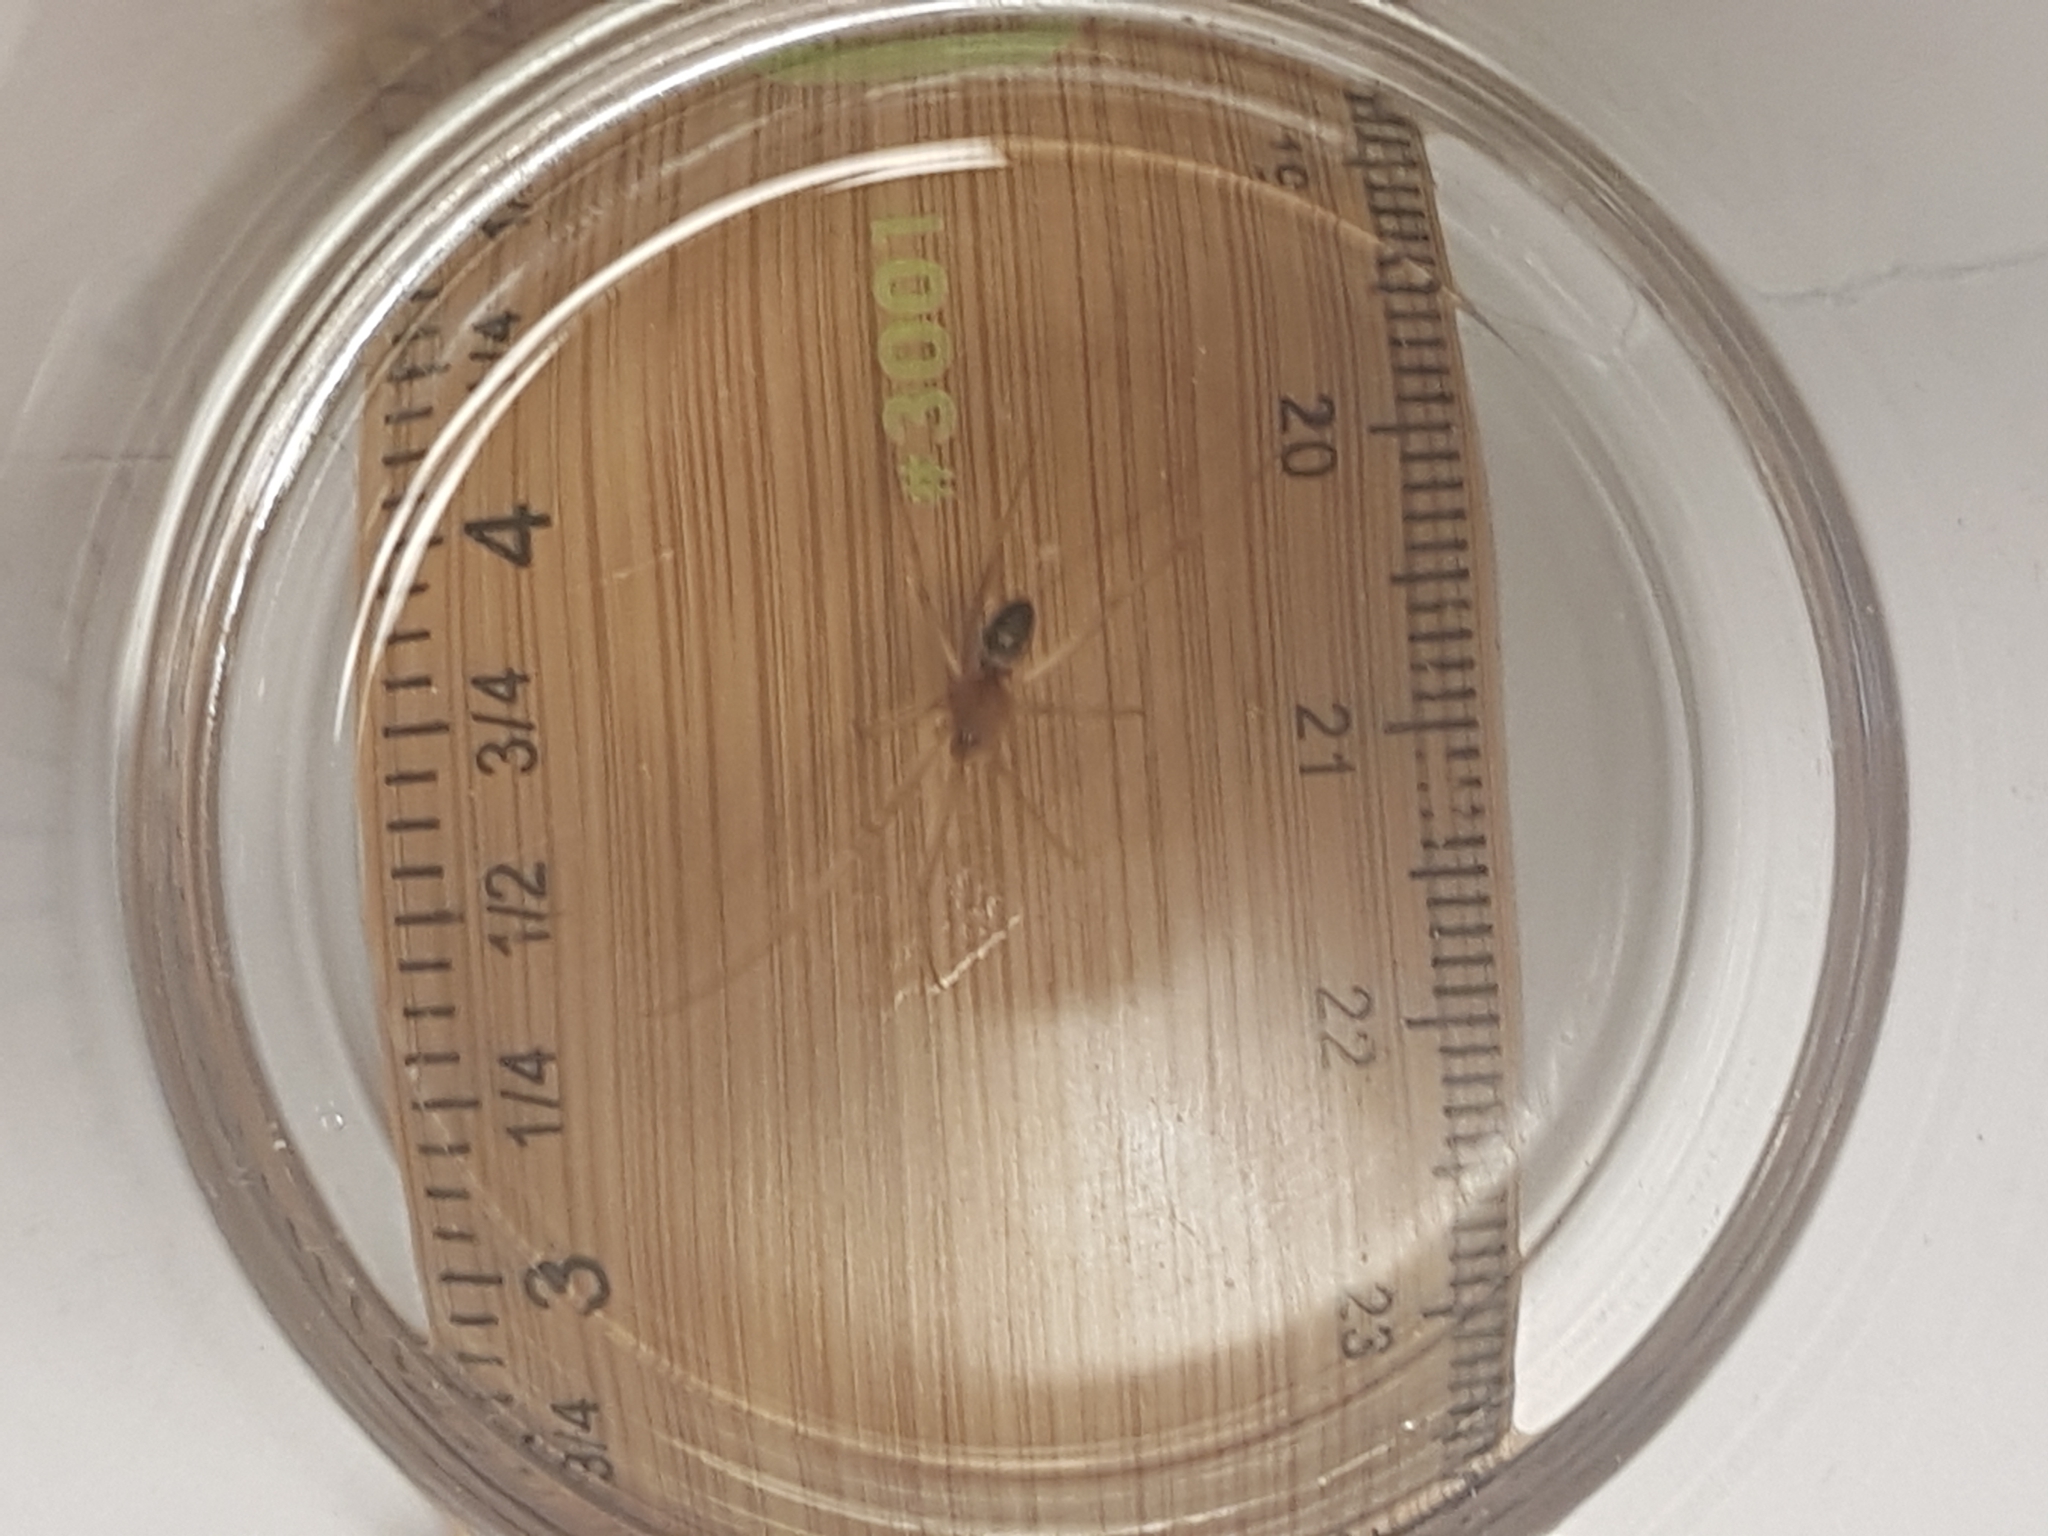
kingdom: Animalia
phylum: Arthropoda
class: Arachnida
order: Araneae
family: Theridiidae
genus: Steatoda
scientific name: Steatoda grossa
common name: False black widow
